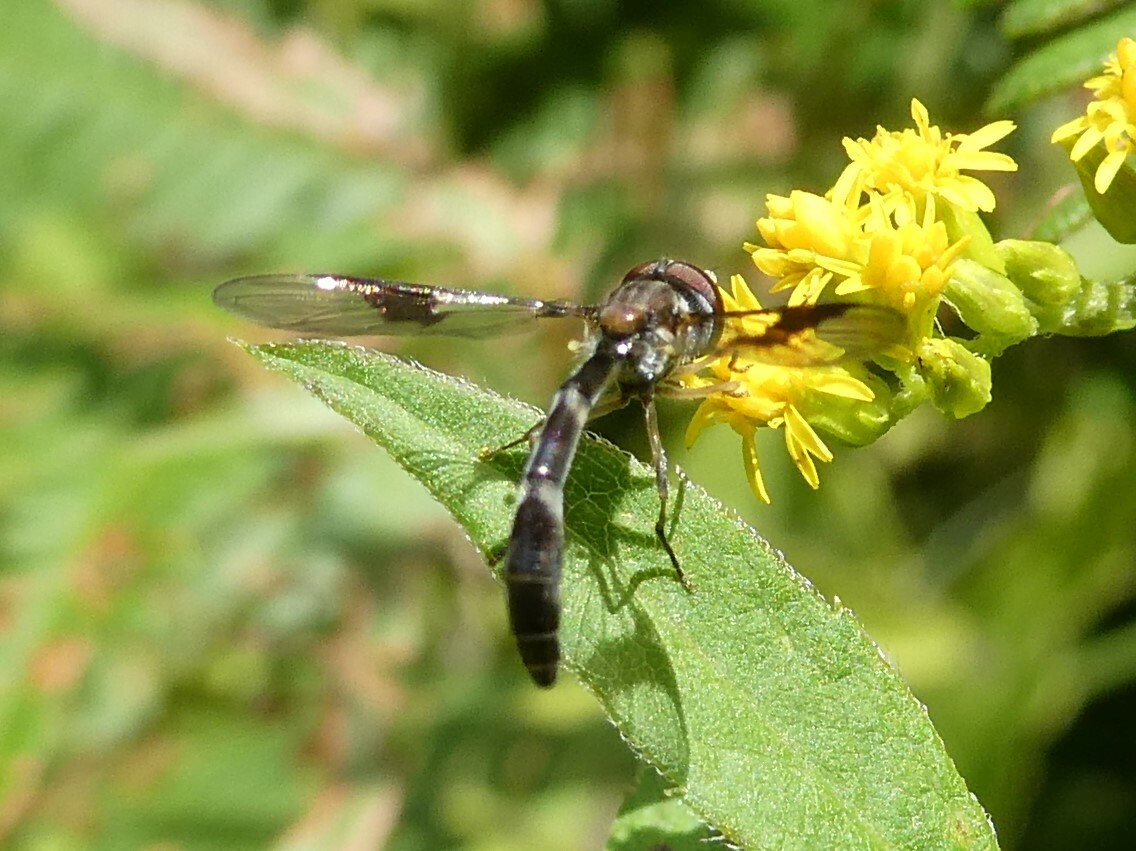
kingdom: Animalia
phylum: Arthropoda
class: Insecta
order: Diptera
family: Syrphidae
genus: Hypocritanus
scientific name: Hypocritanus fascipennis
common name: Eastern band-winged hover fly
